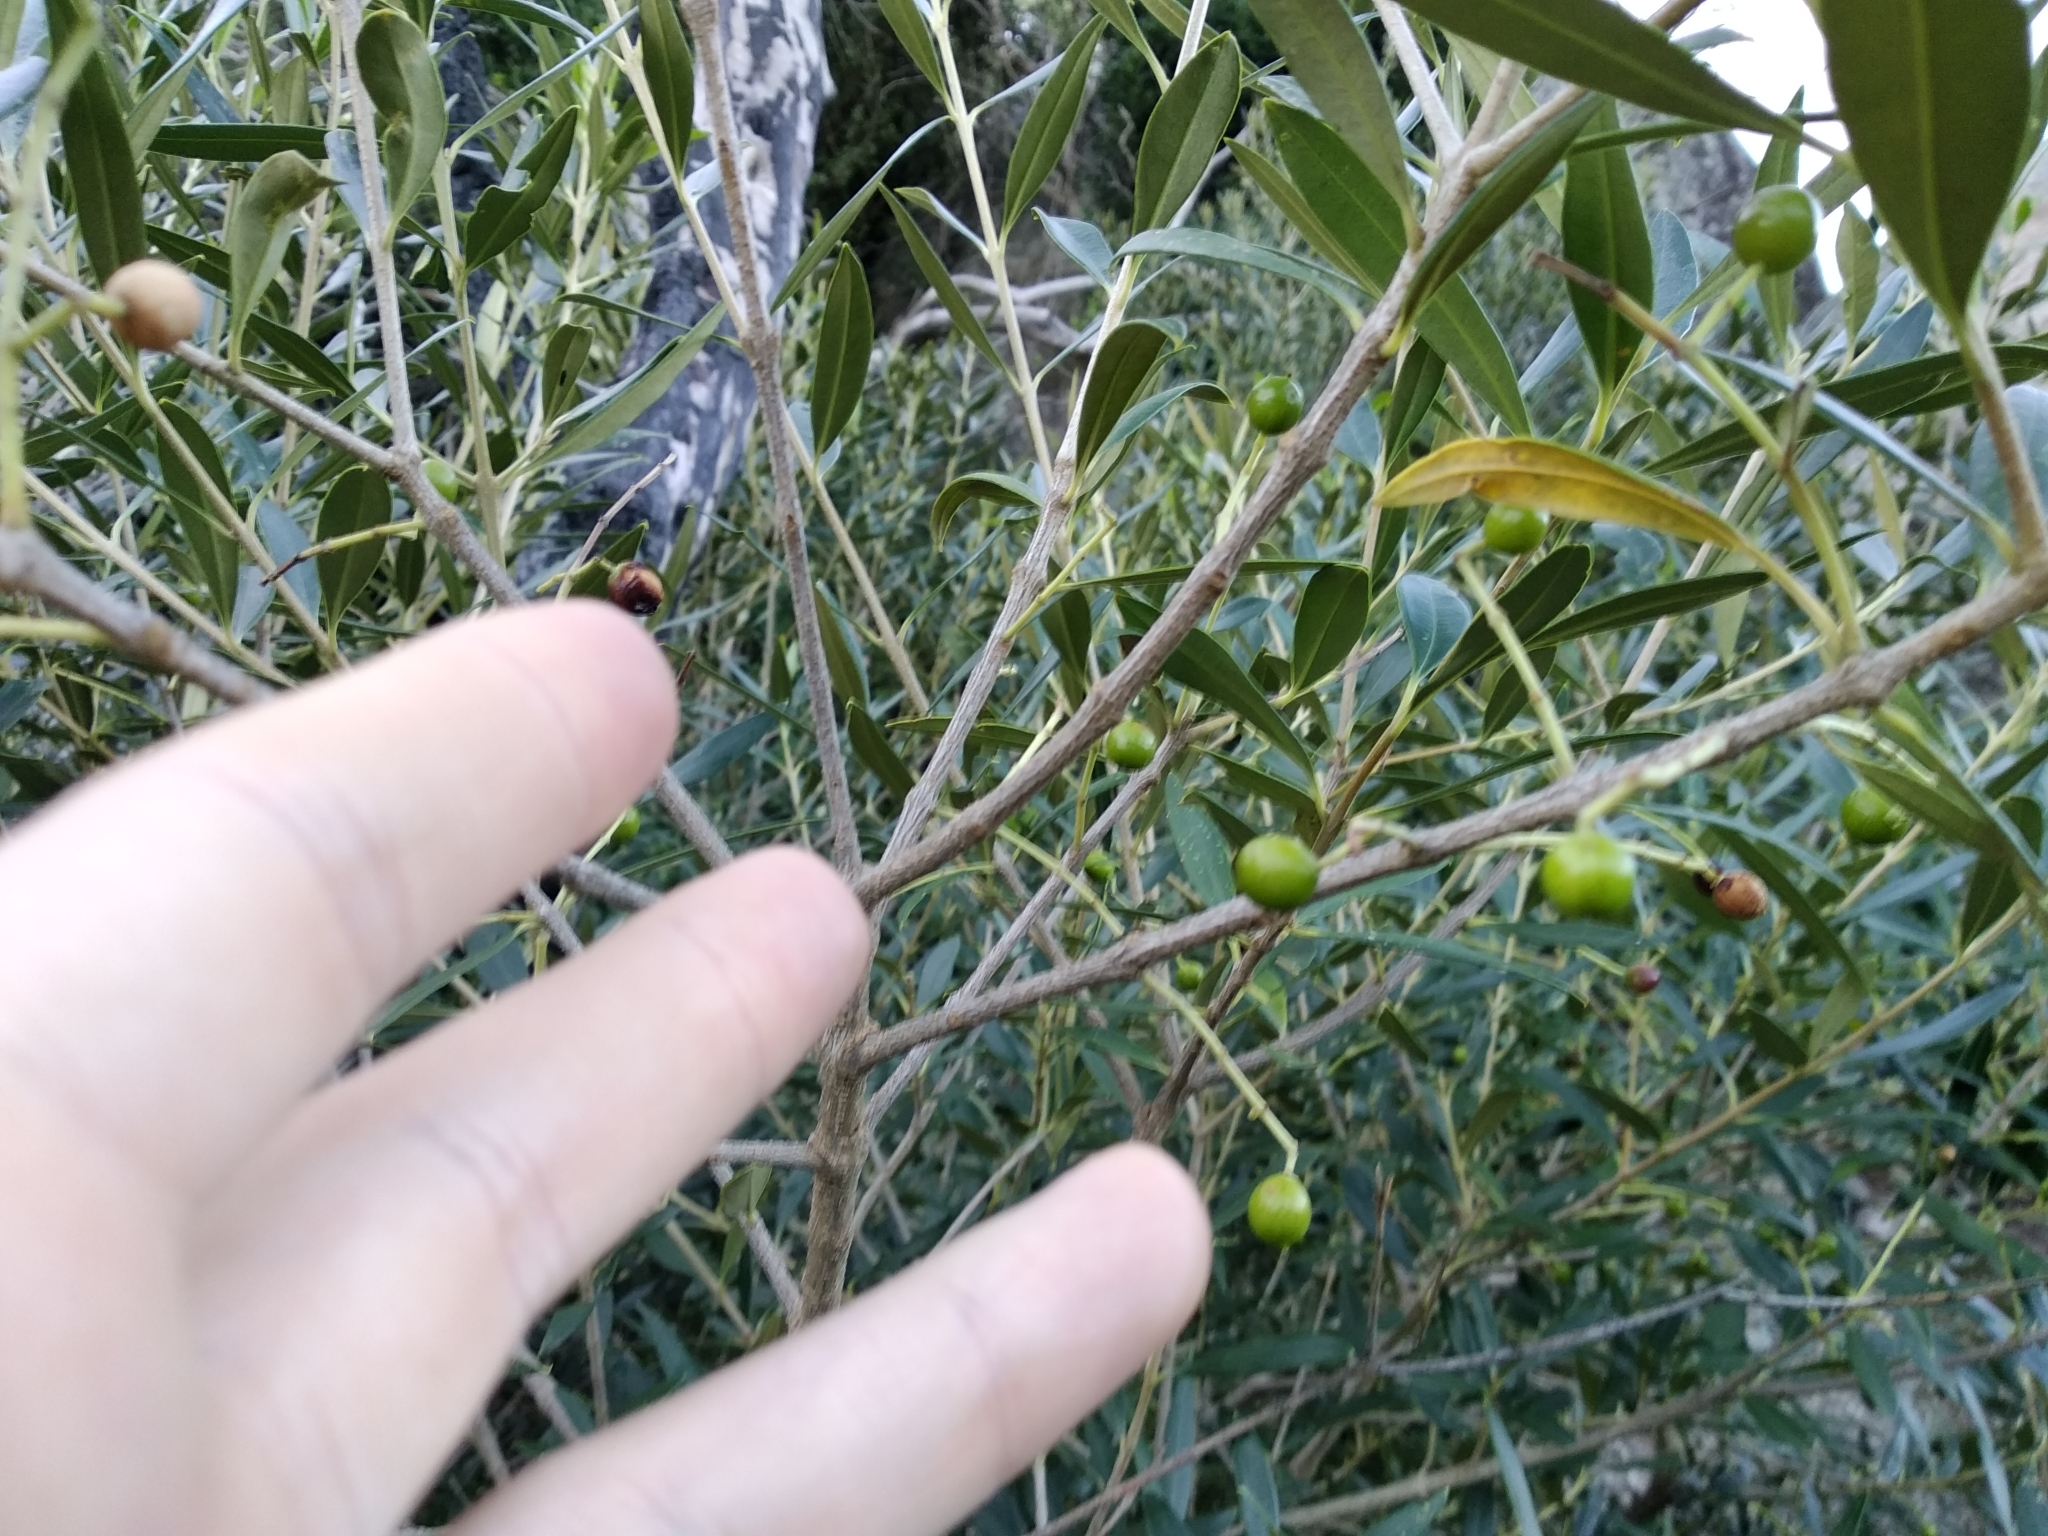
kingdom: Plantae
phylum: Tracheophyta
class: Magnoliopsida
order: Lamiales
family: Oleaceae
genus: Olea
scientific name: Olea europaea
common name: Olive
